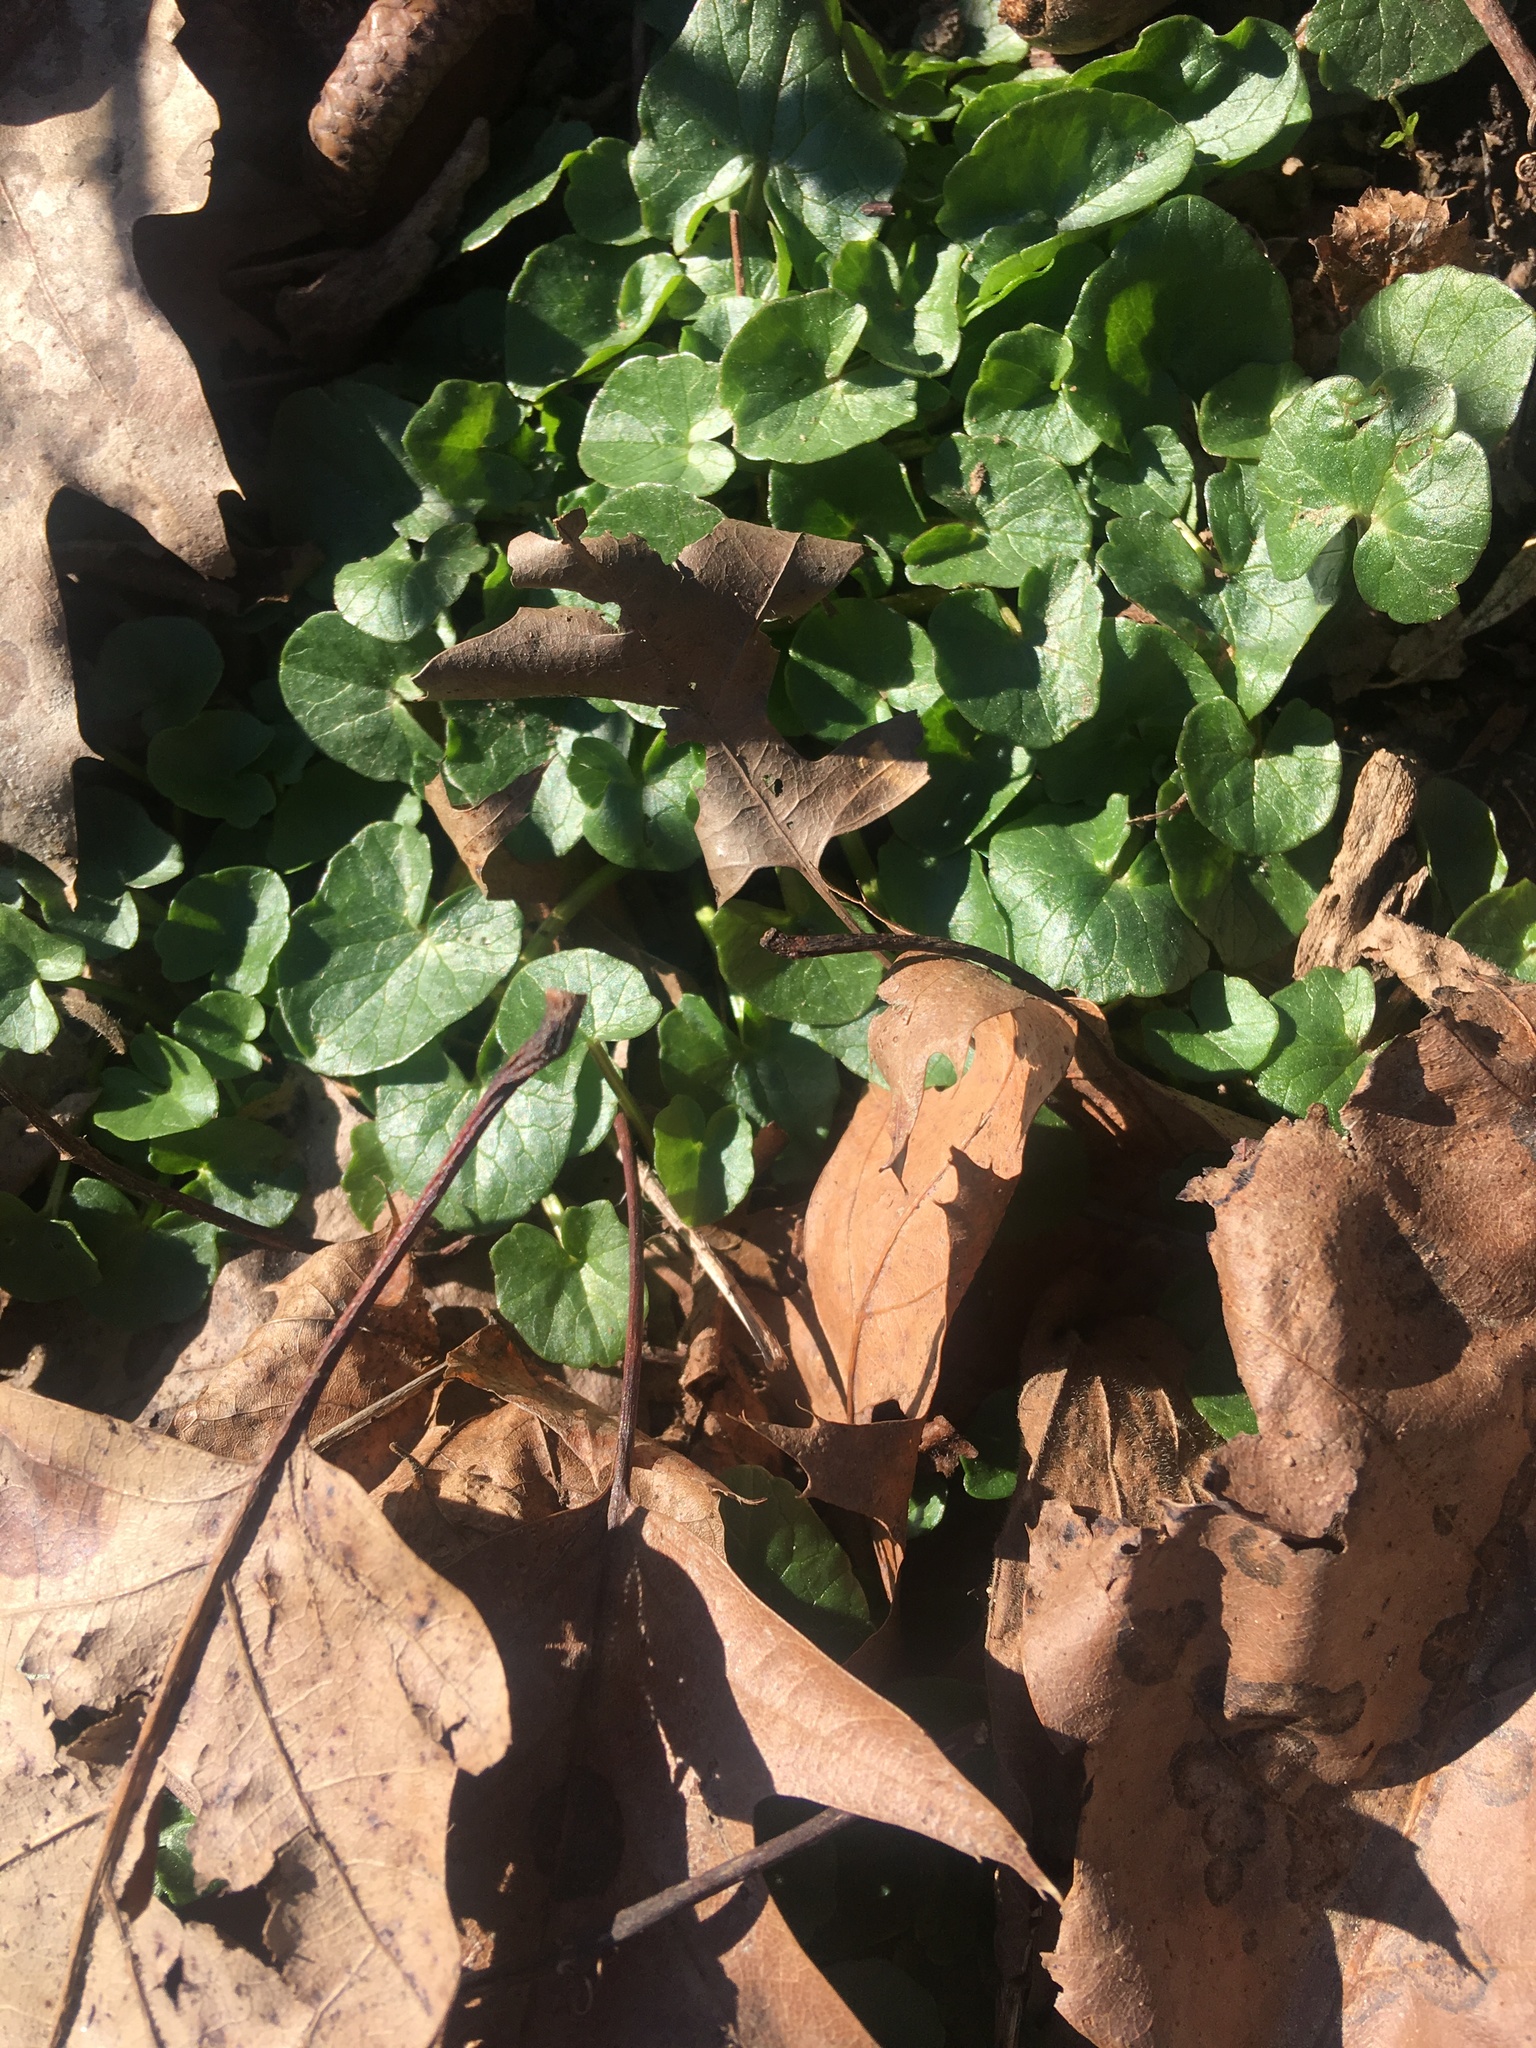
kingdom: Plantae
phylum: Tracheophyta
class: Magnoliopsida
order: Ranunculales
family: Ranunculaceae
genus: Ficaria
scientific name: Ficaria verna
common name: Lesser celandine
